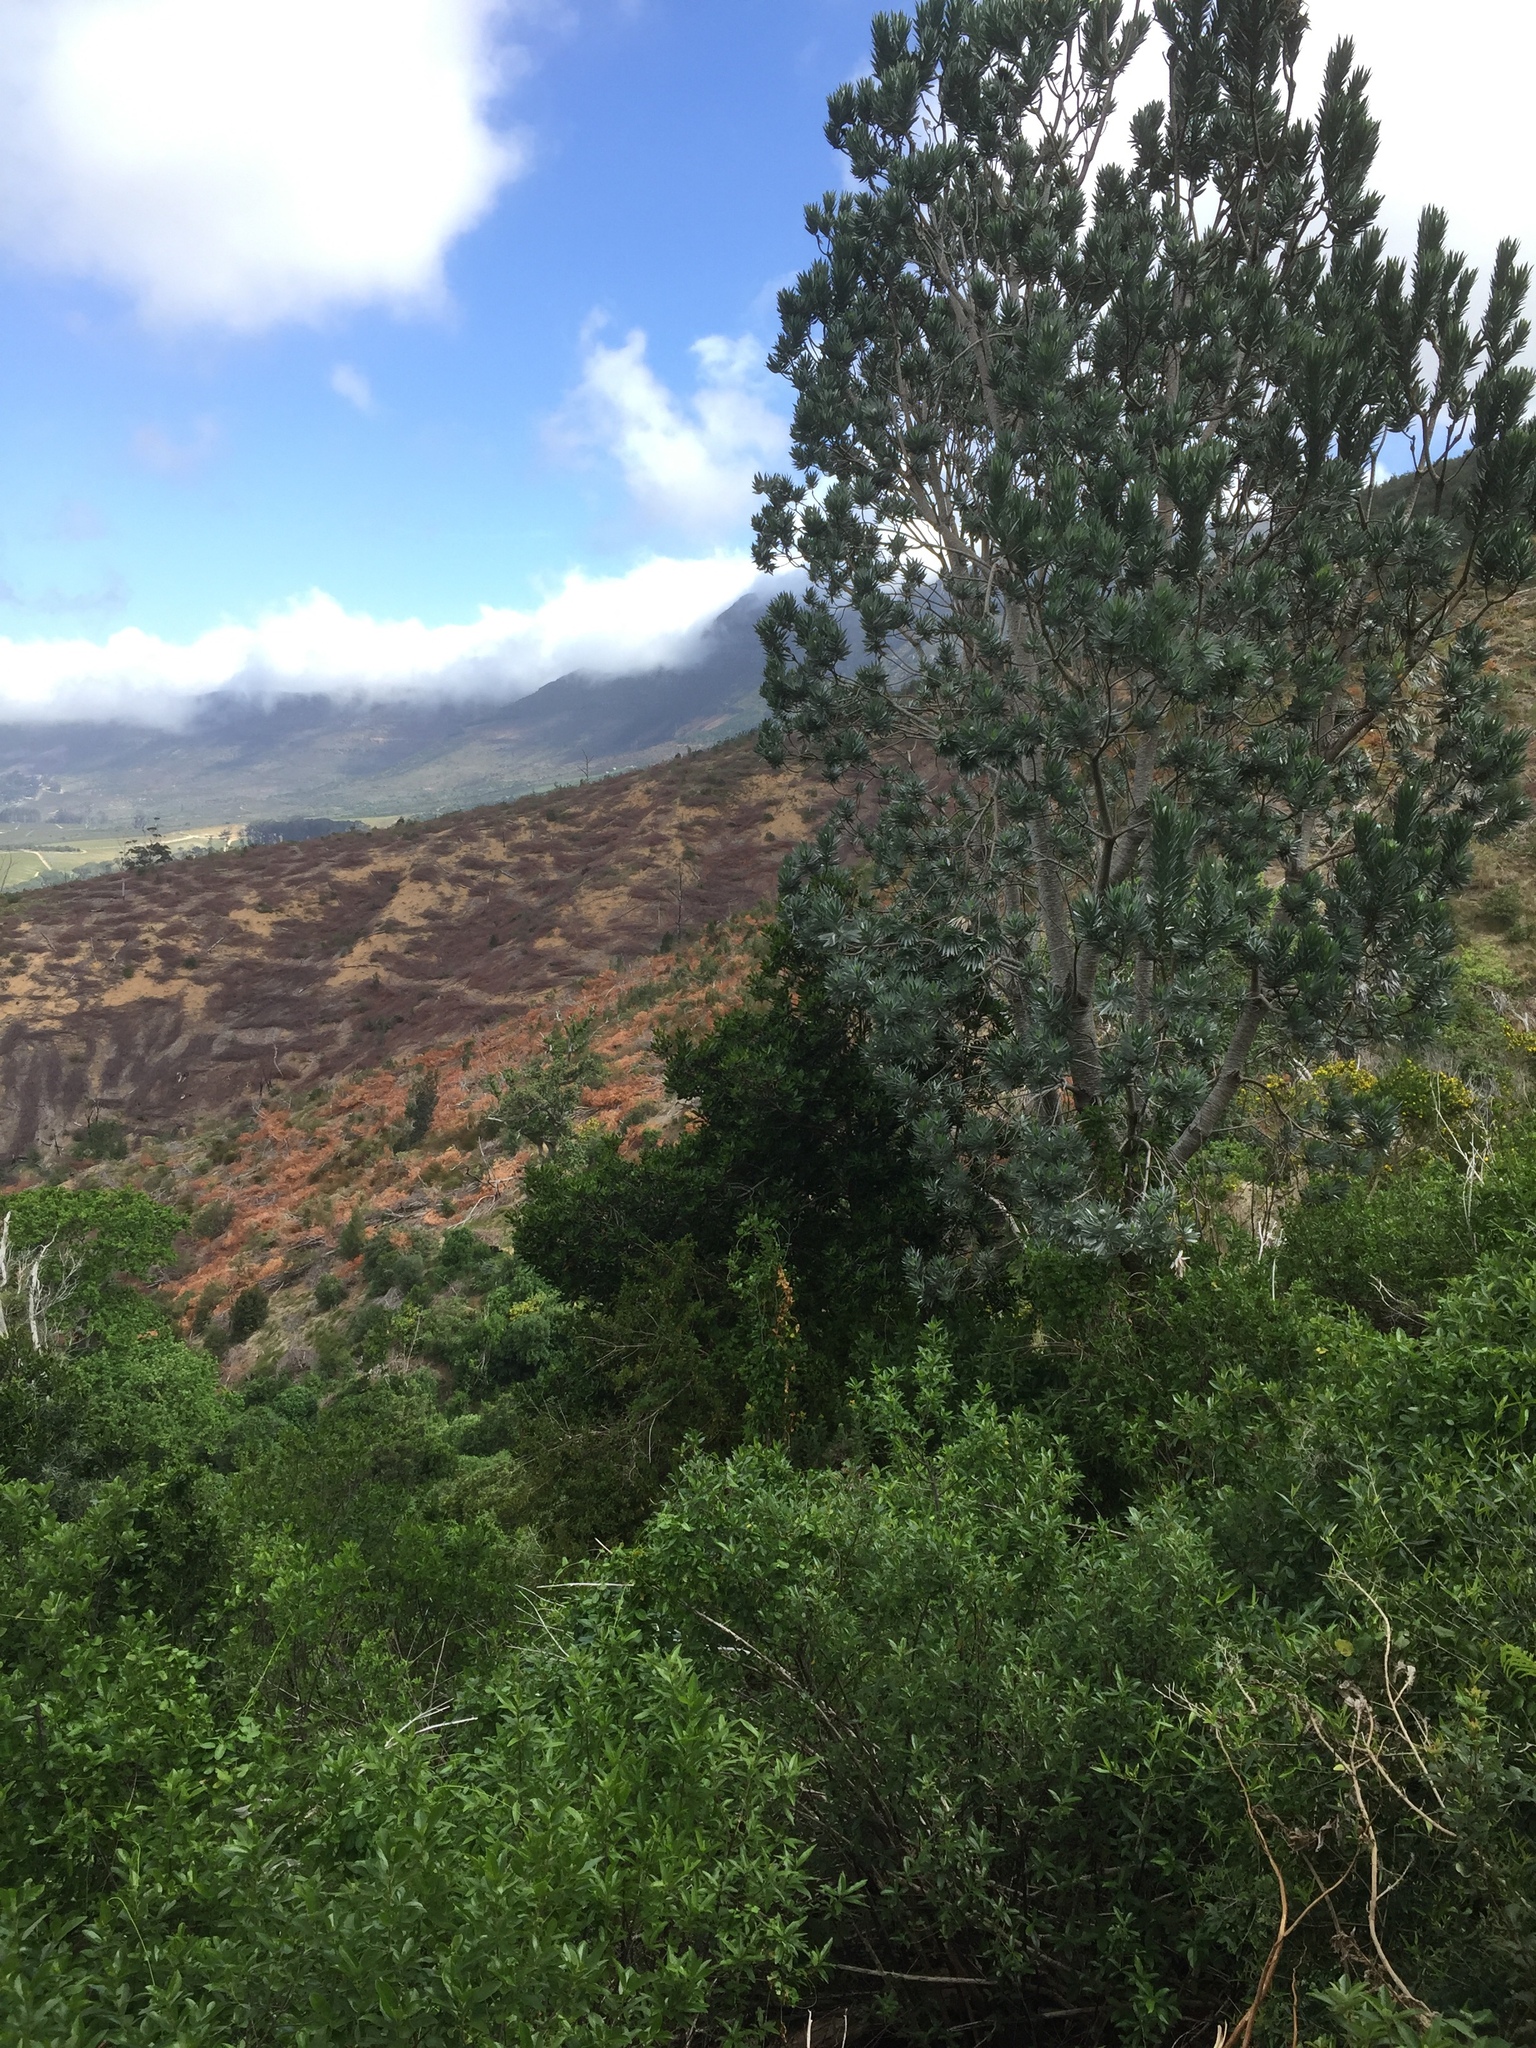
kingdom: Plantae
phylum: Tracheophyta
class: Magnoliopsida
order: Proteales
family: Proteaceae
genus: Leucadendron
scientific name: Leucadendron argenteum
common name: Cape silver tree
